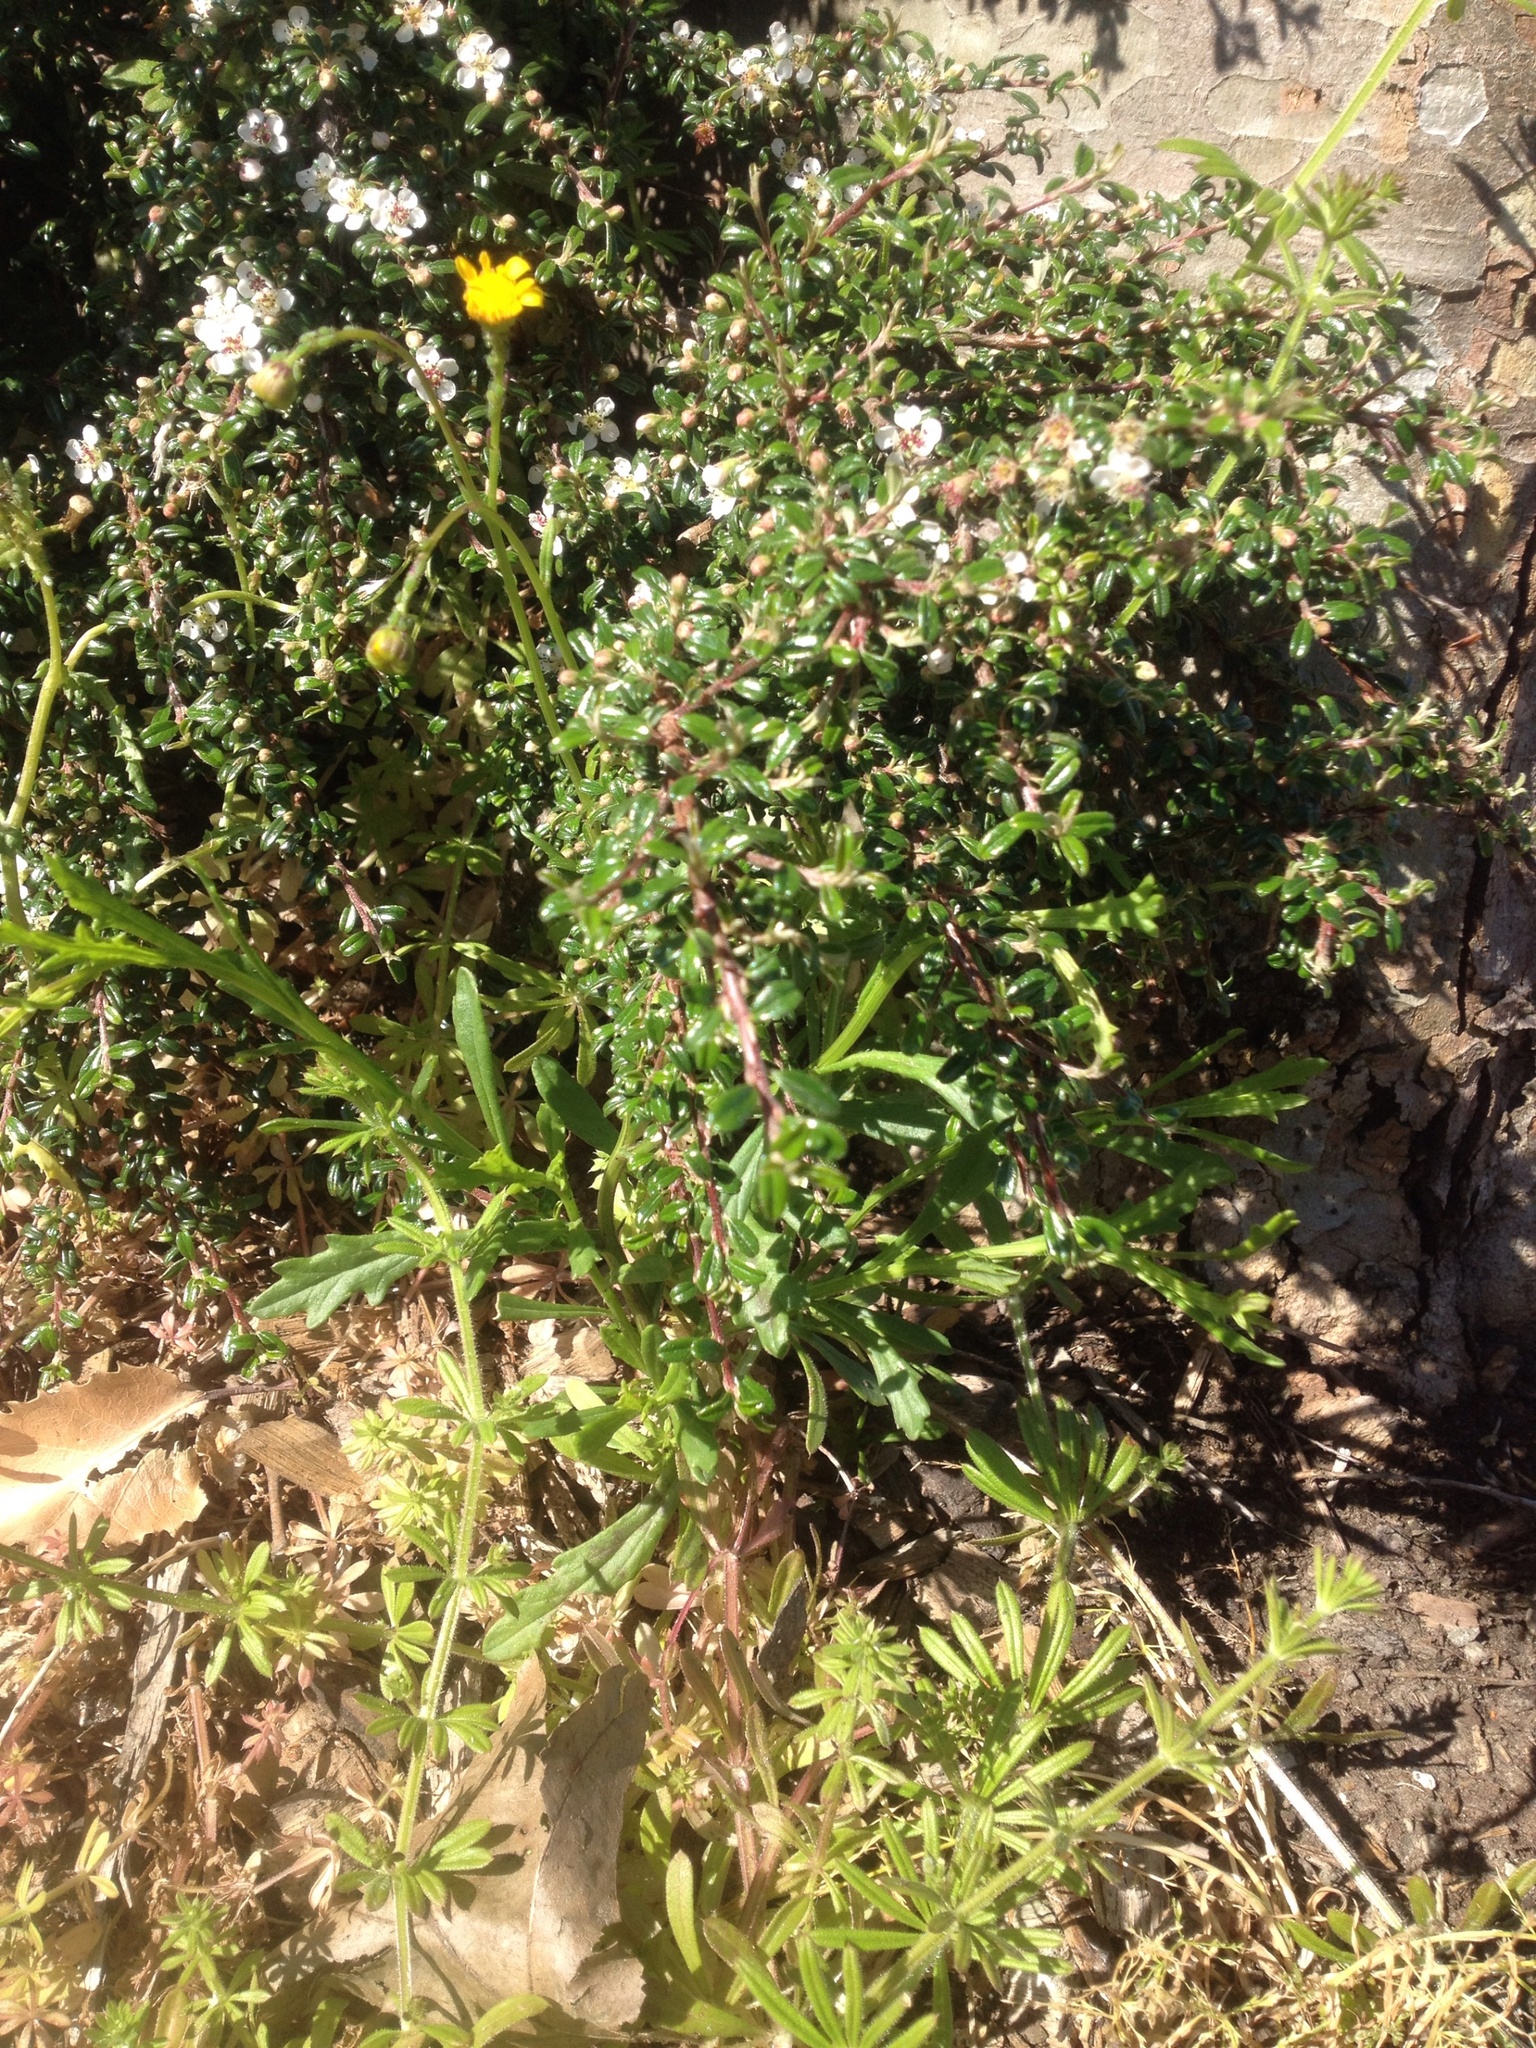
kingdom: Plantae
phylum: Tracheophyta
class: Magnoliopsida
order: Asterales
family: Asteraceae
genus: Senecio
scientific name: Senecio skirrhodon
